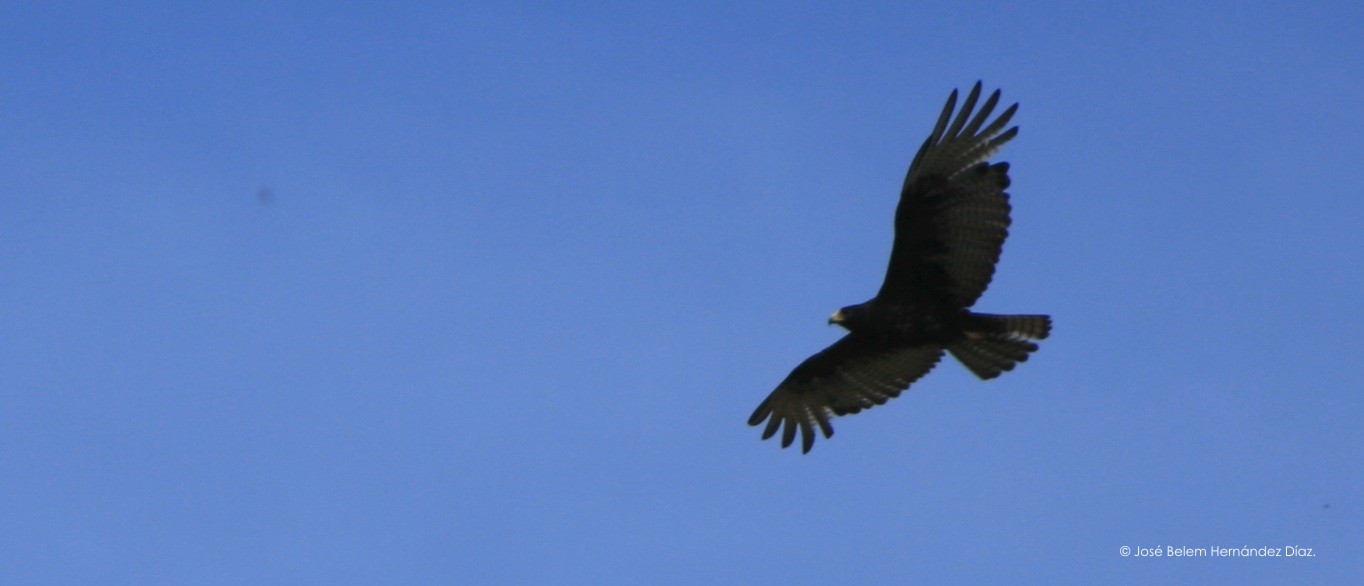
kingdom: Animalia
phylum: Chordata
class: Aves
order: Accipitriformes
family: Accipitridae
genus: Buteo
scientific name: Buteo albonotatus
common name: Zone-tailed hawk
